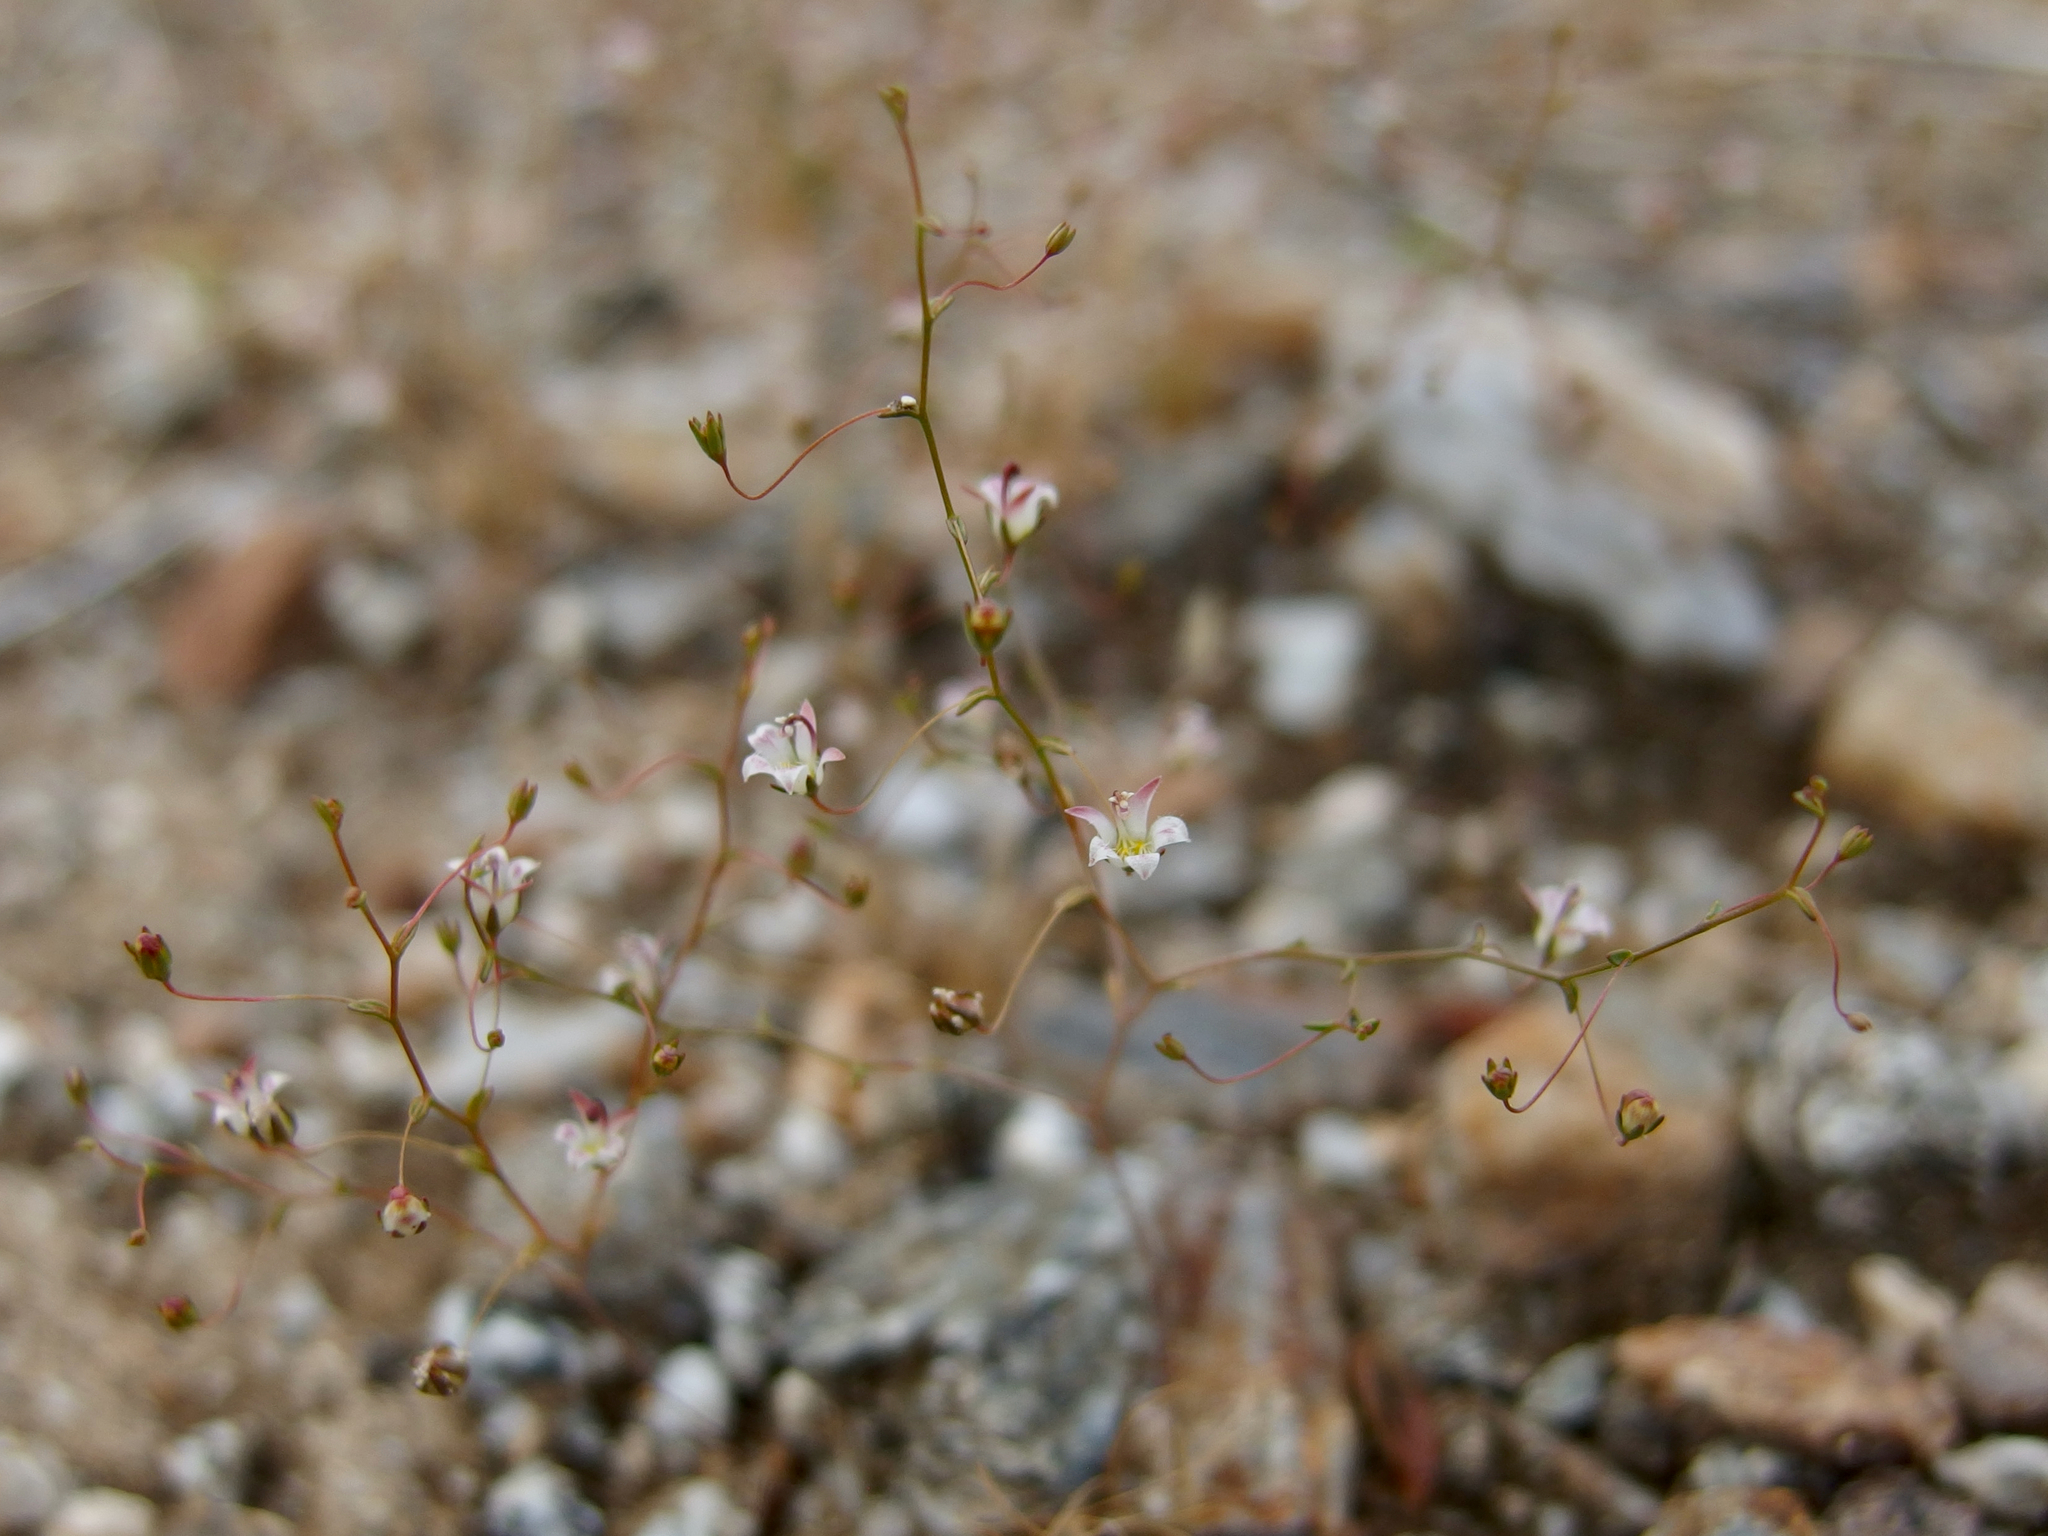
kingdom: Plantae
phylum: Tracheophyta
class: Magnoliopsida
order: Asterales
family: Campanulaceae
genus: Nemacladus
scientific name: Nemacladus tenuis
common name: Desert threadplant
